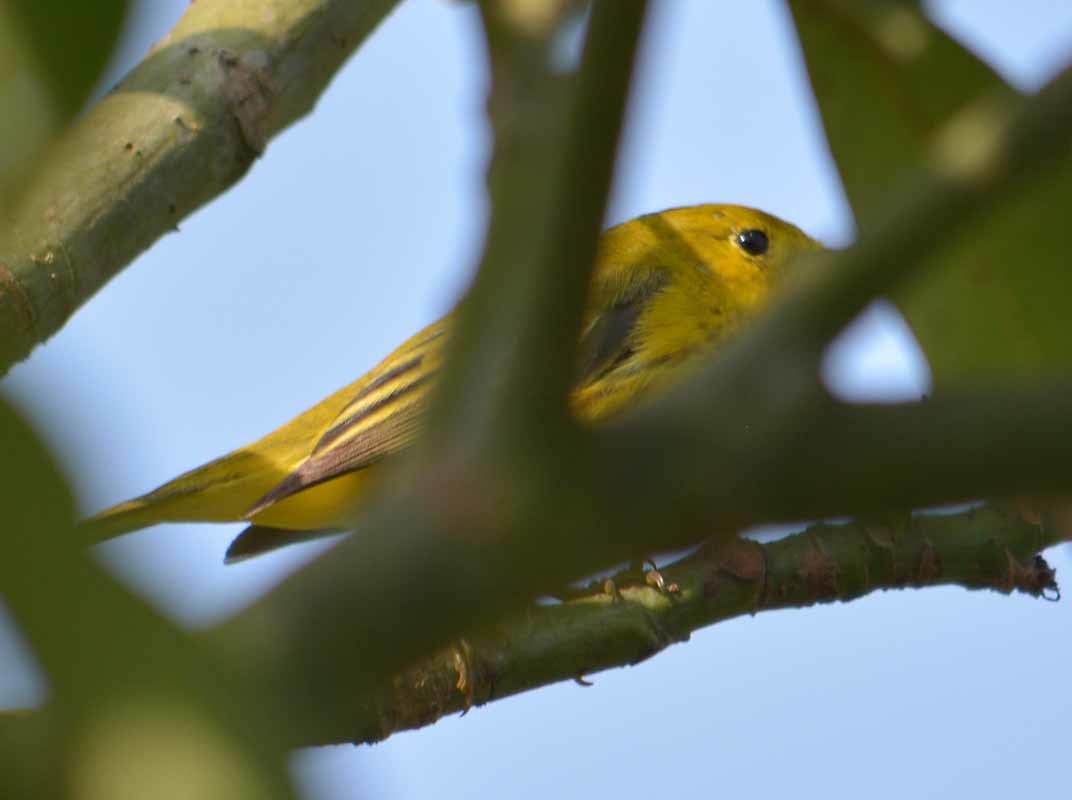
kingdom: Animalia
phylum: Chordata
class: Aves
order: Passeriformes
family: Parulidae
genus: Setophaga
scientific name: Setophaga petechia
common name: Yellow warbler
